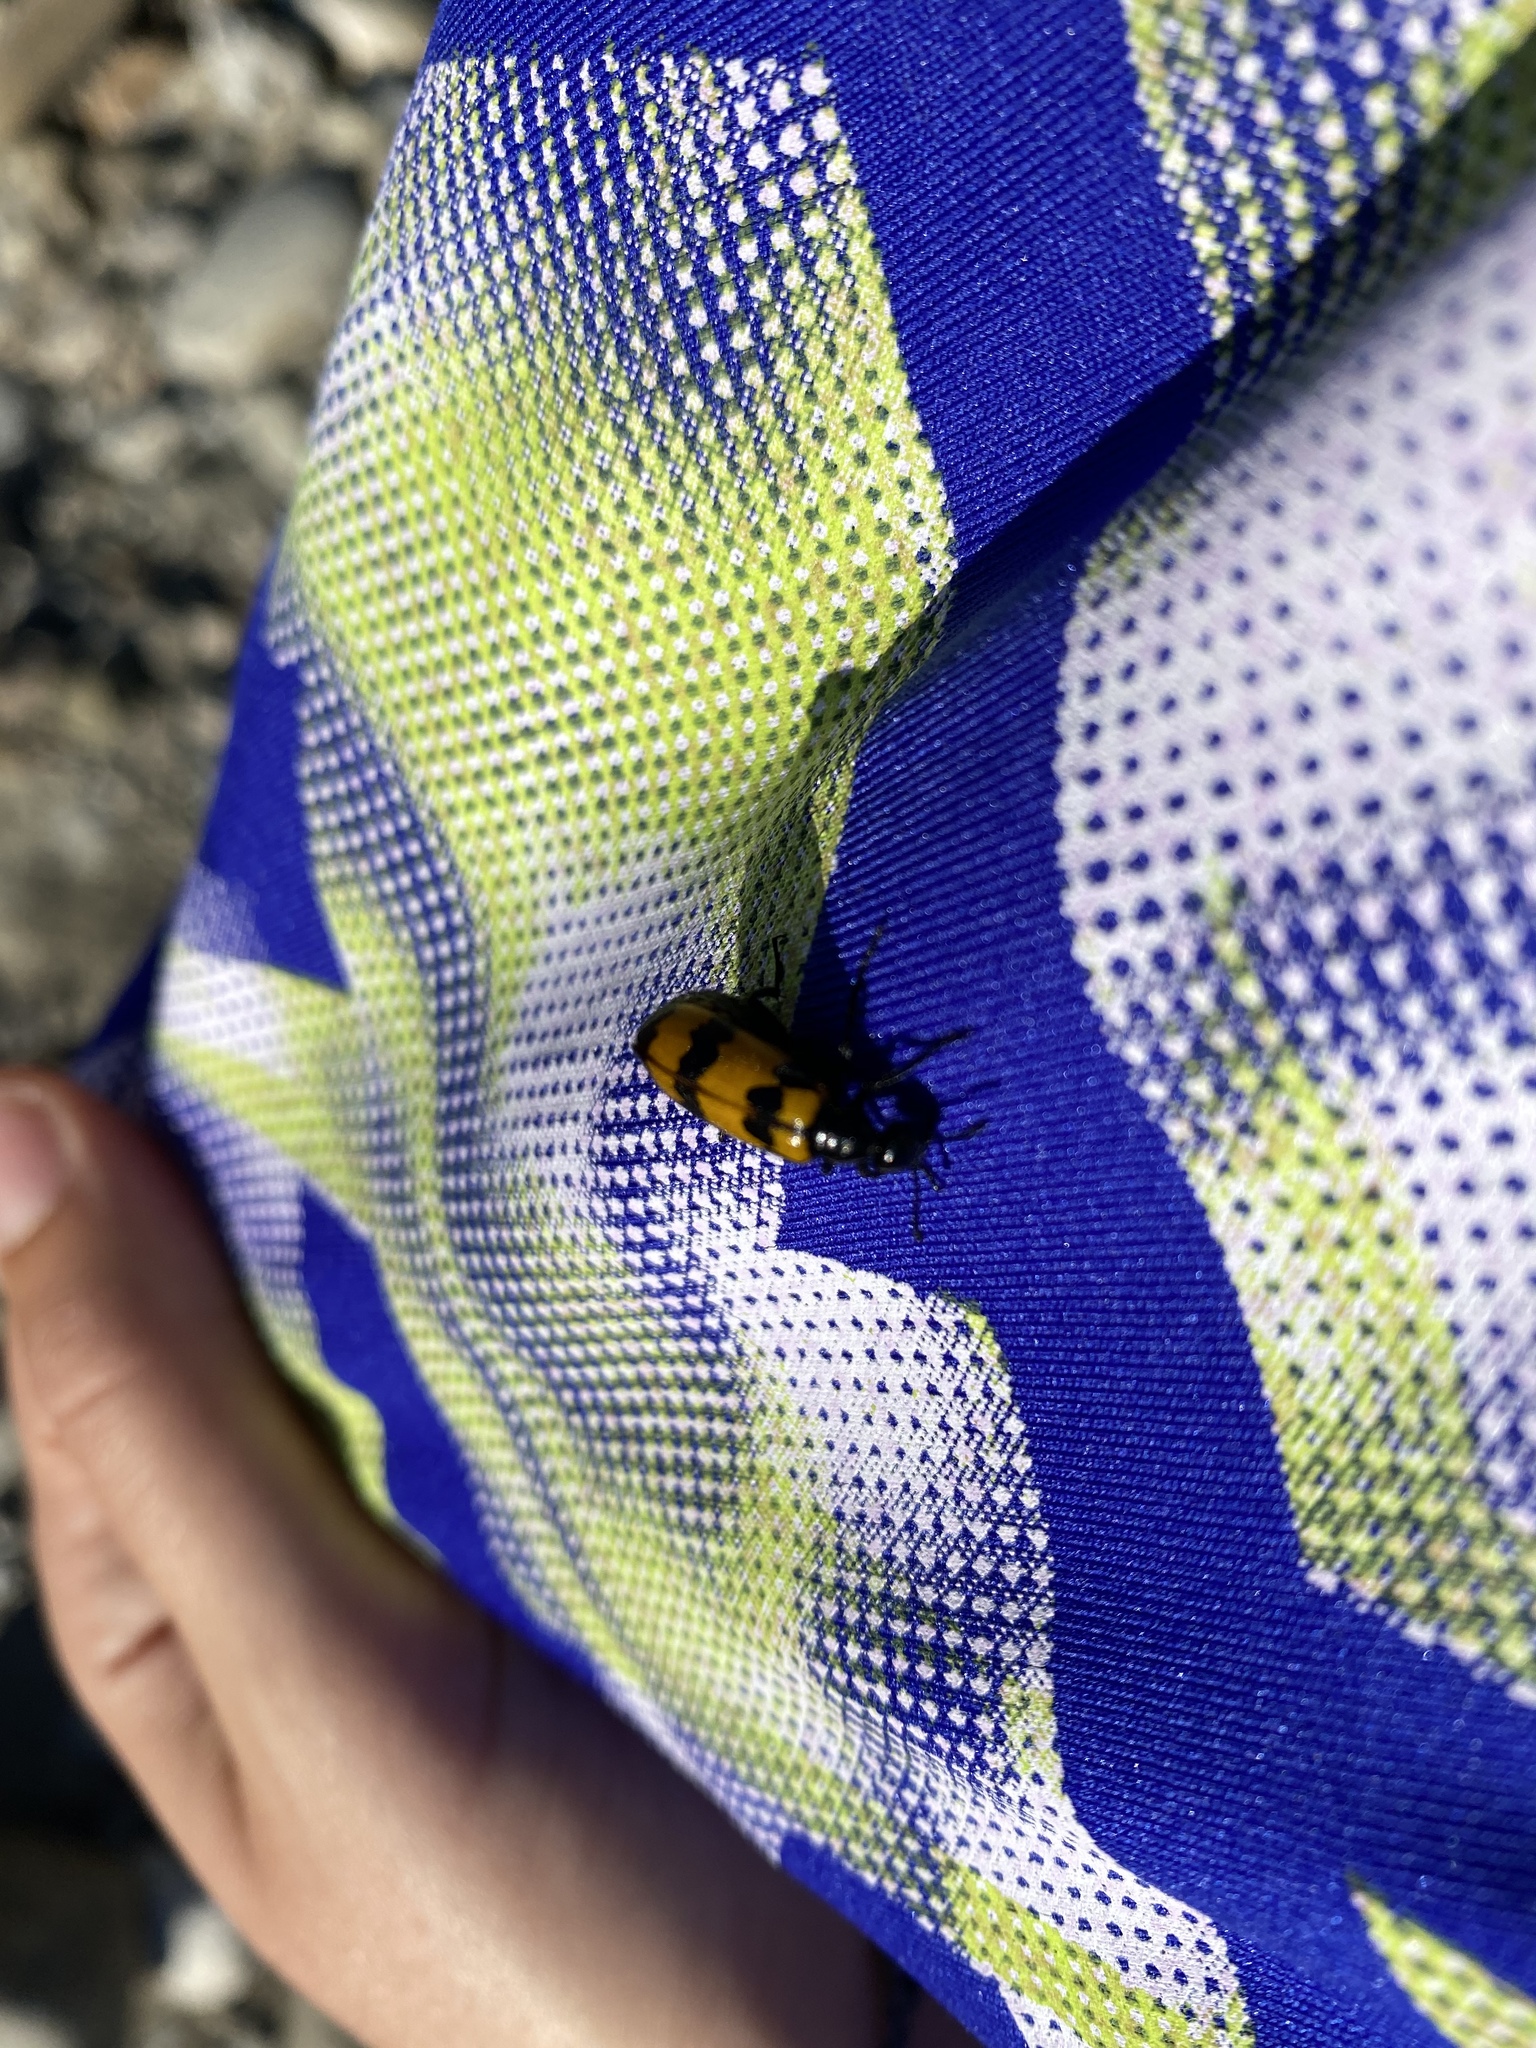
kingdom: Animalia
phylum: Arthropoda
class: Insecta
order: Coleoptera
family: Meloidae
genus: Mylabris
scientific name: Mylabris variabilis
